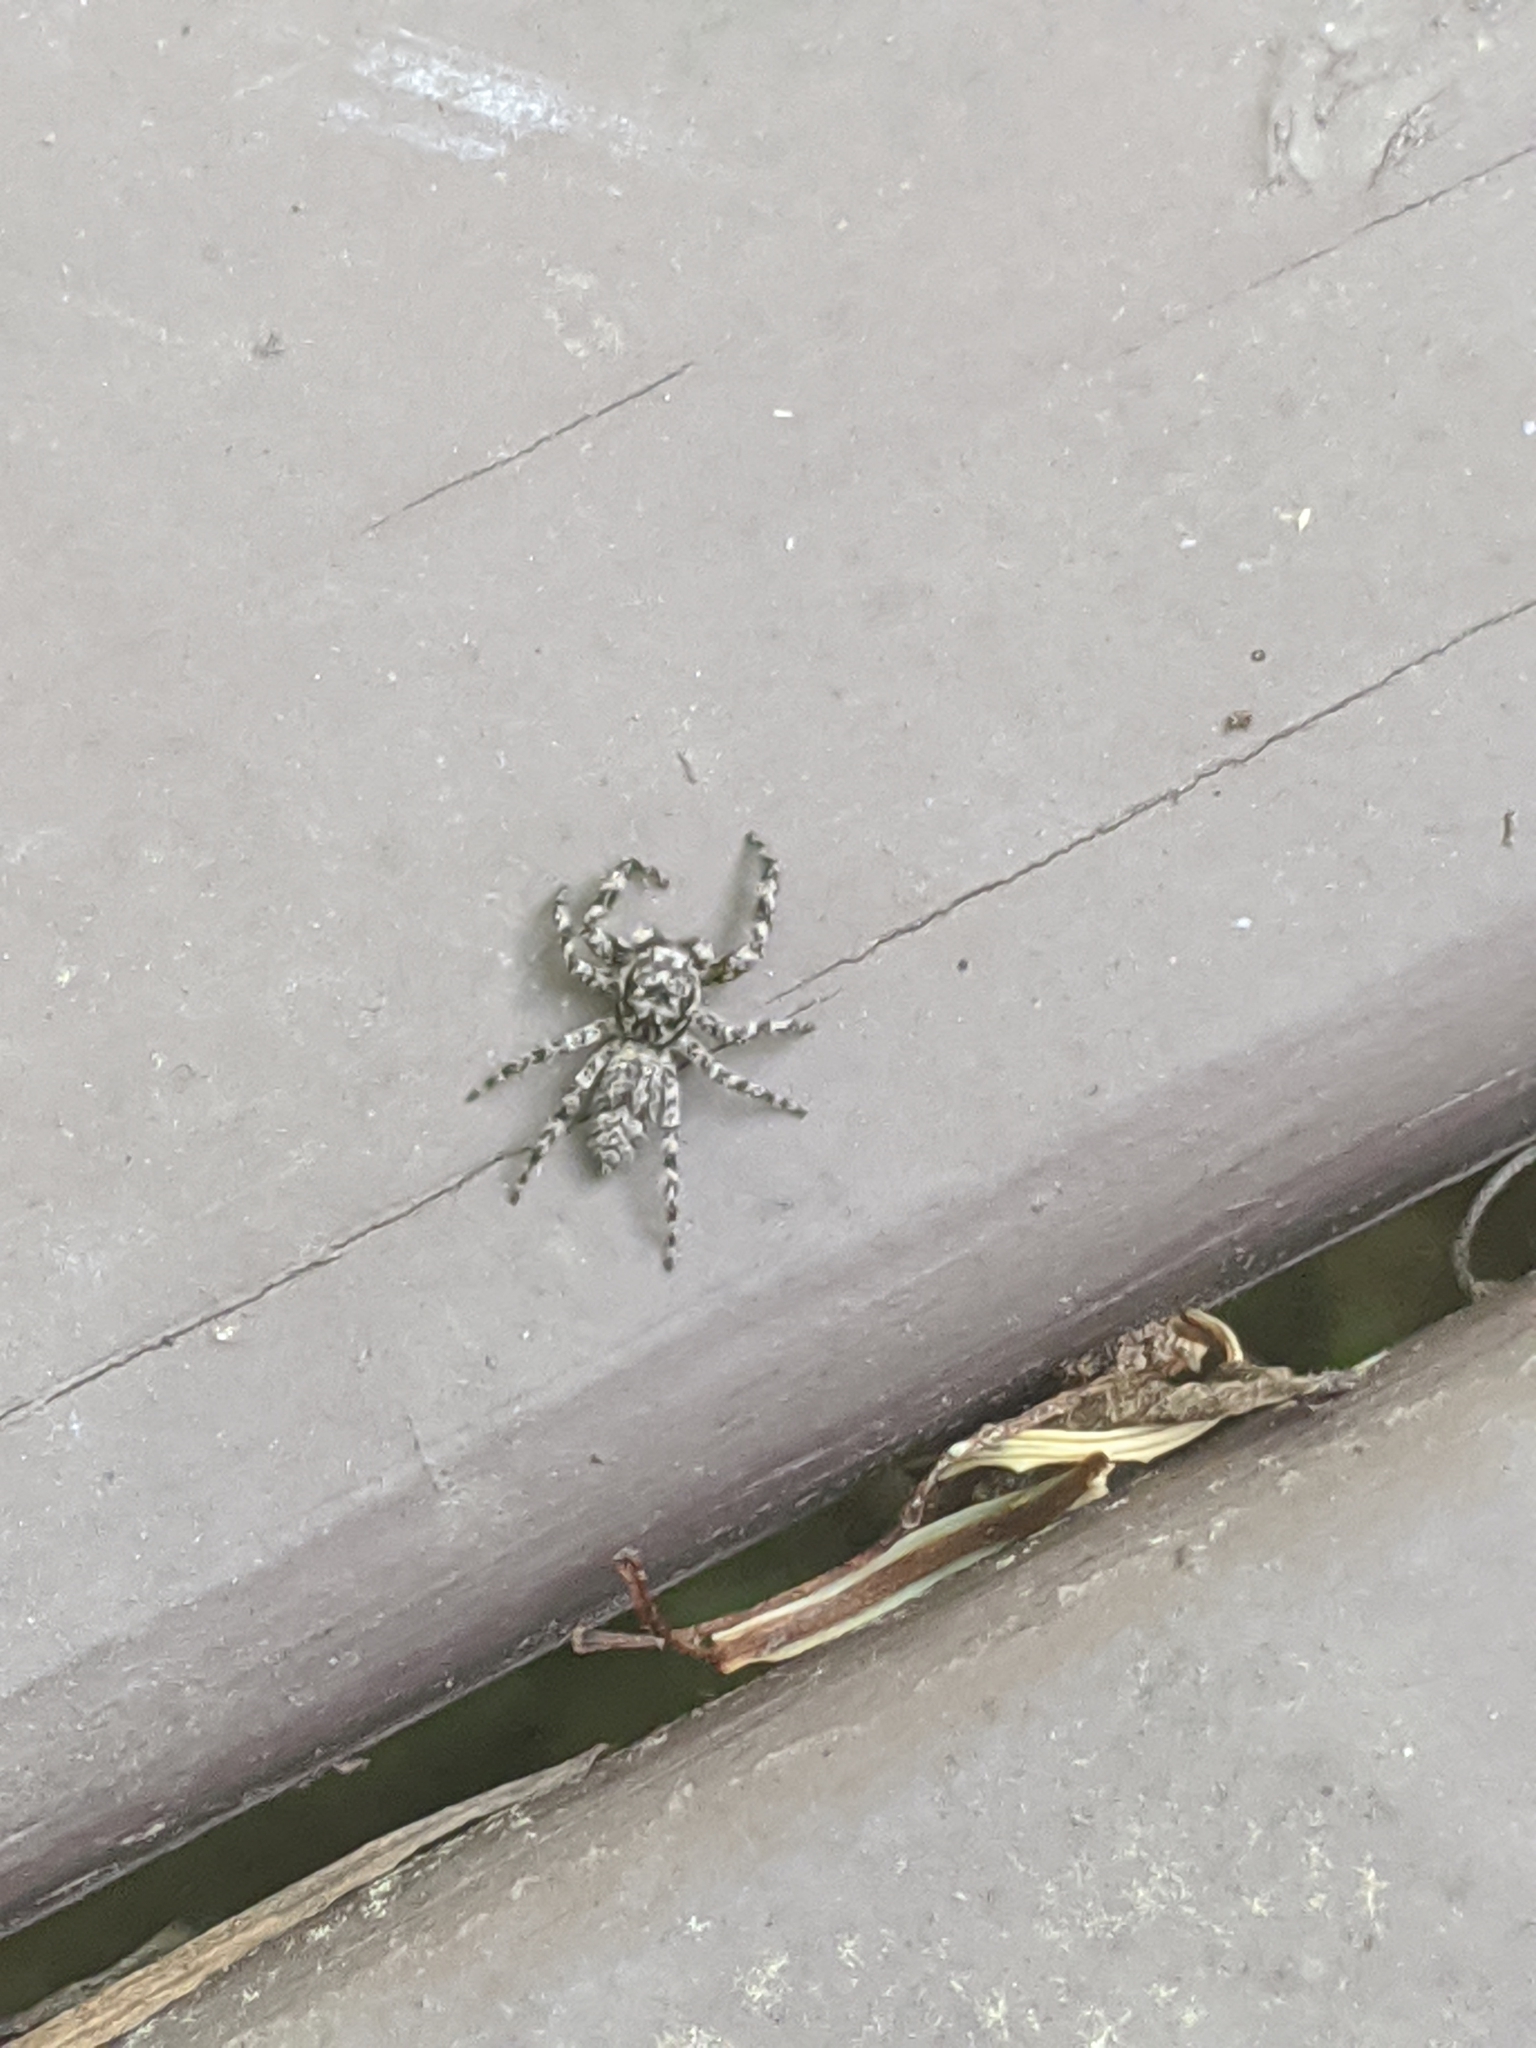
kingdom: Animalia
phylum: Arthropoda
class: Arachnida
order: Araneae
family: Salticidae
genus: Platycryptus
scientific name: Platycryptus undatus
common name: Tan jumping spider
